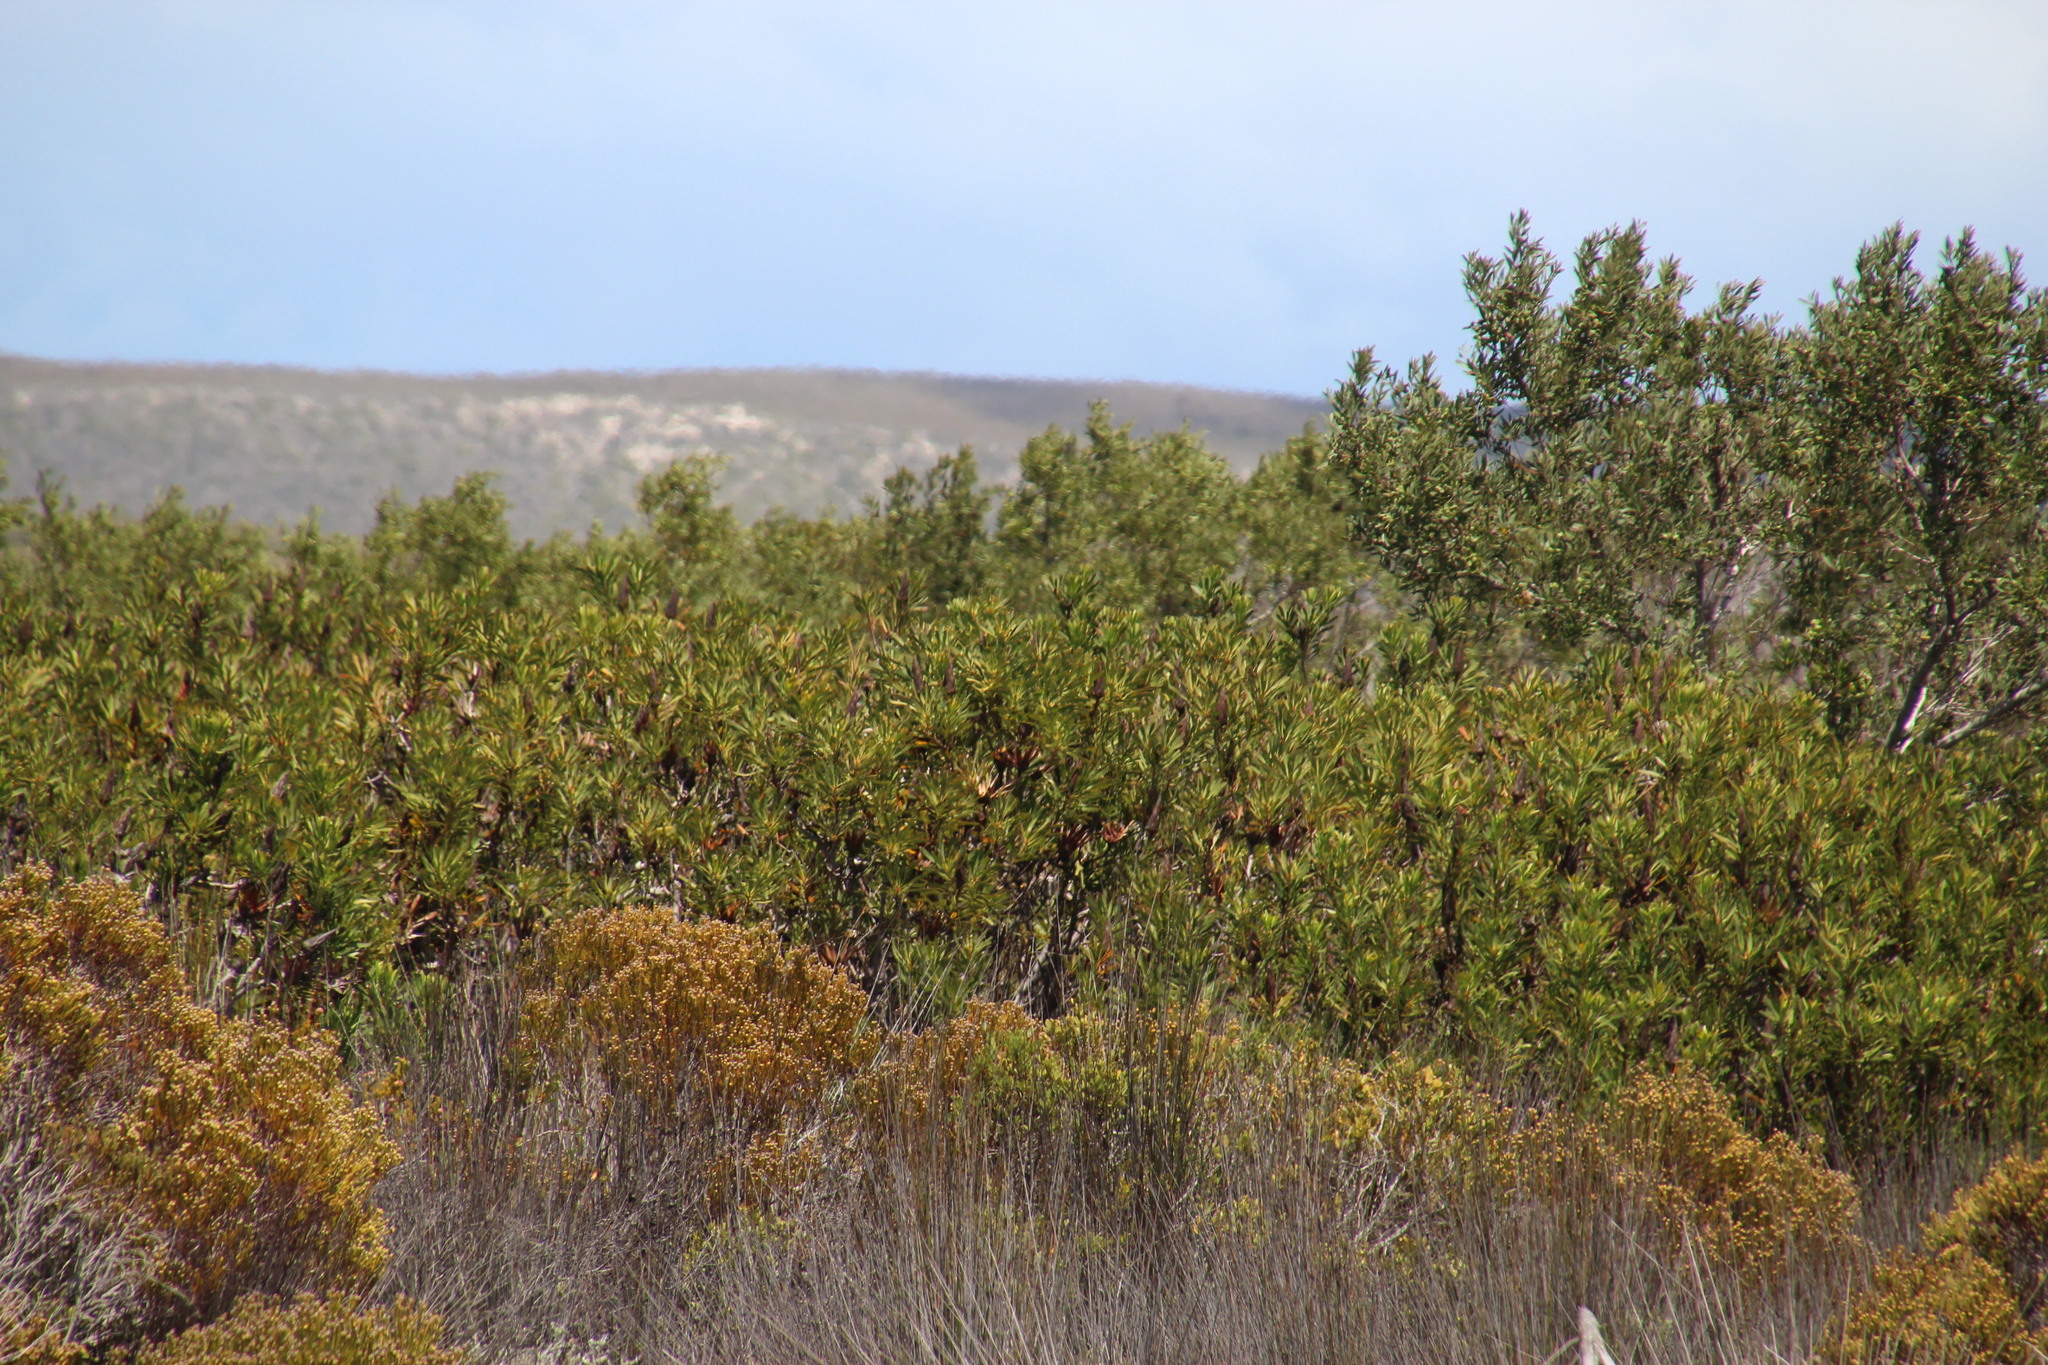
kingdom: Plantae
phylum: Tracheophyta
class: Magnoliopsida
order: Proteales
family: Proteaceae
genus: Protea
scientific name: Protea repens
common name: Sugarbush
